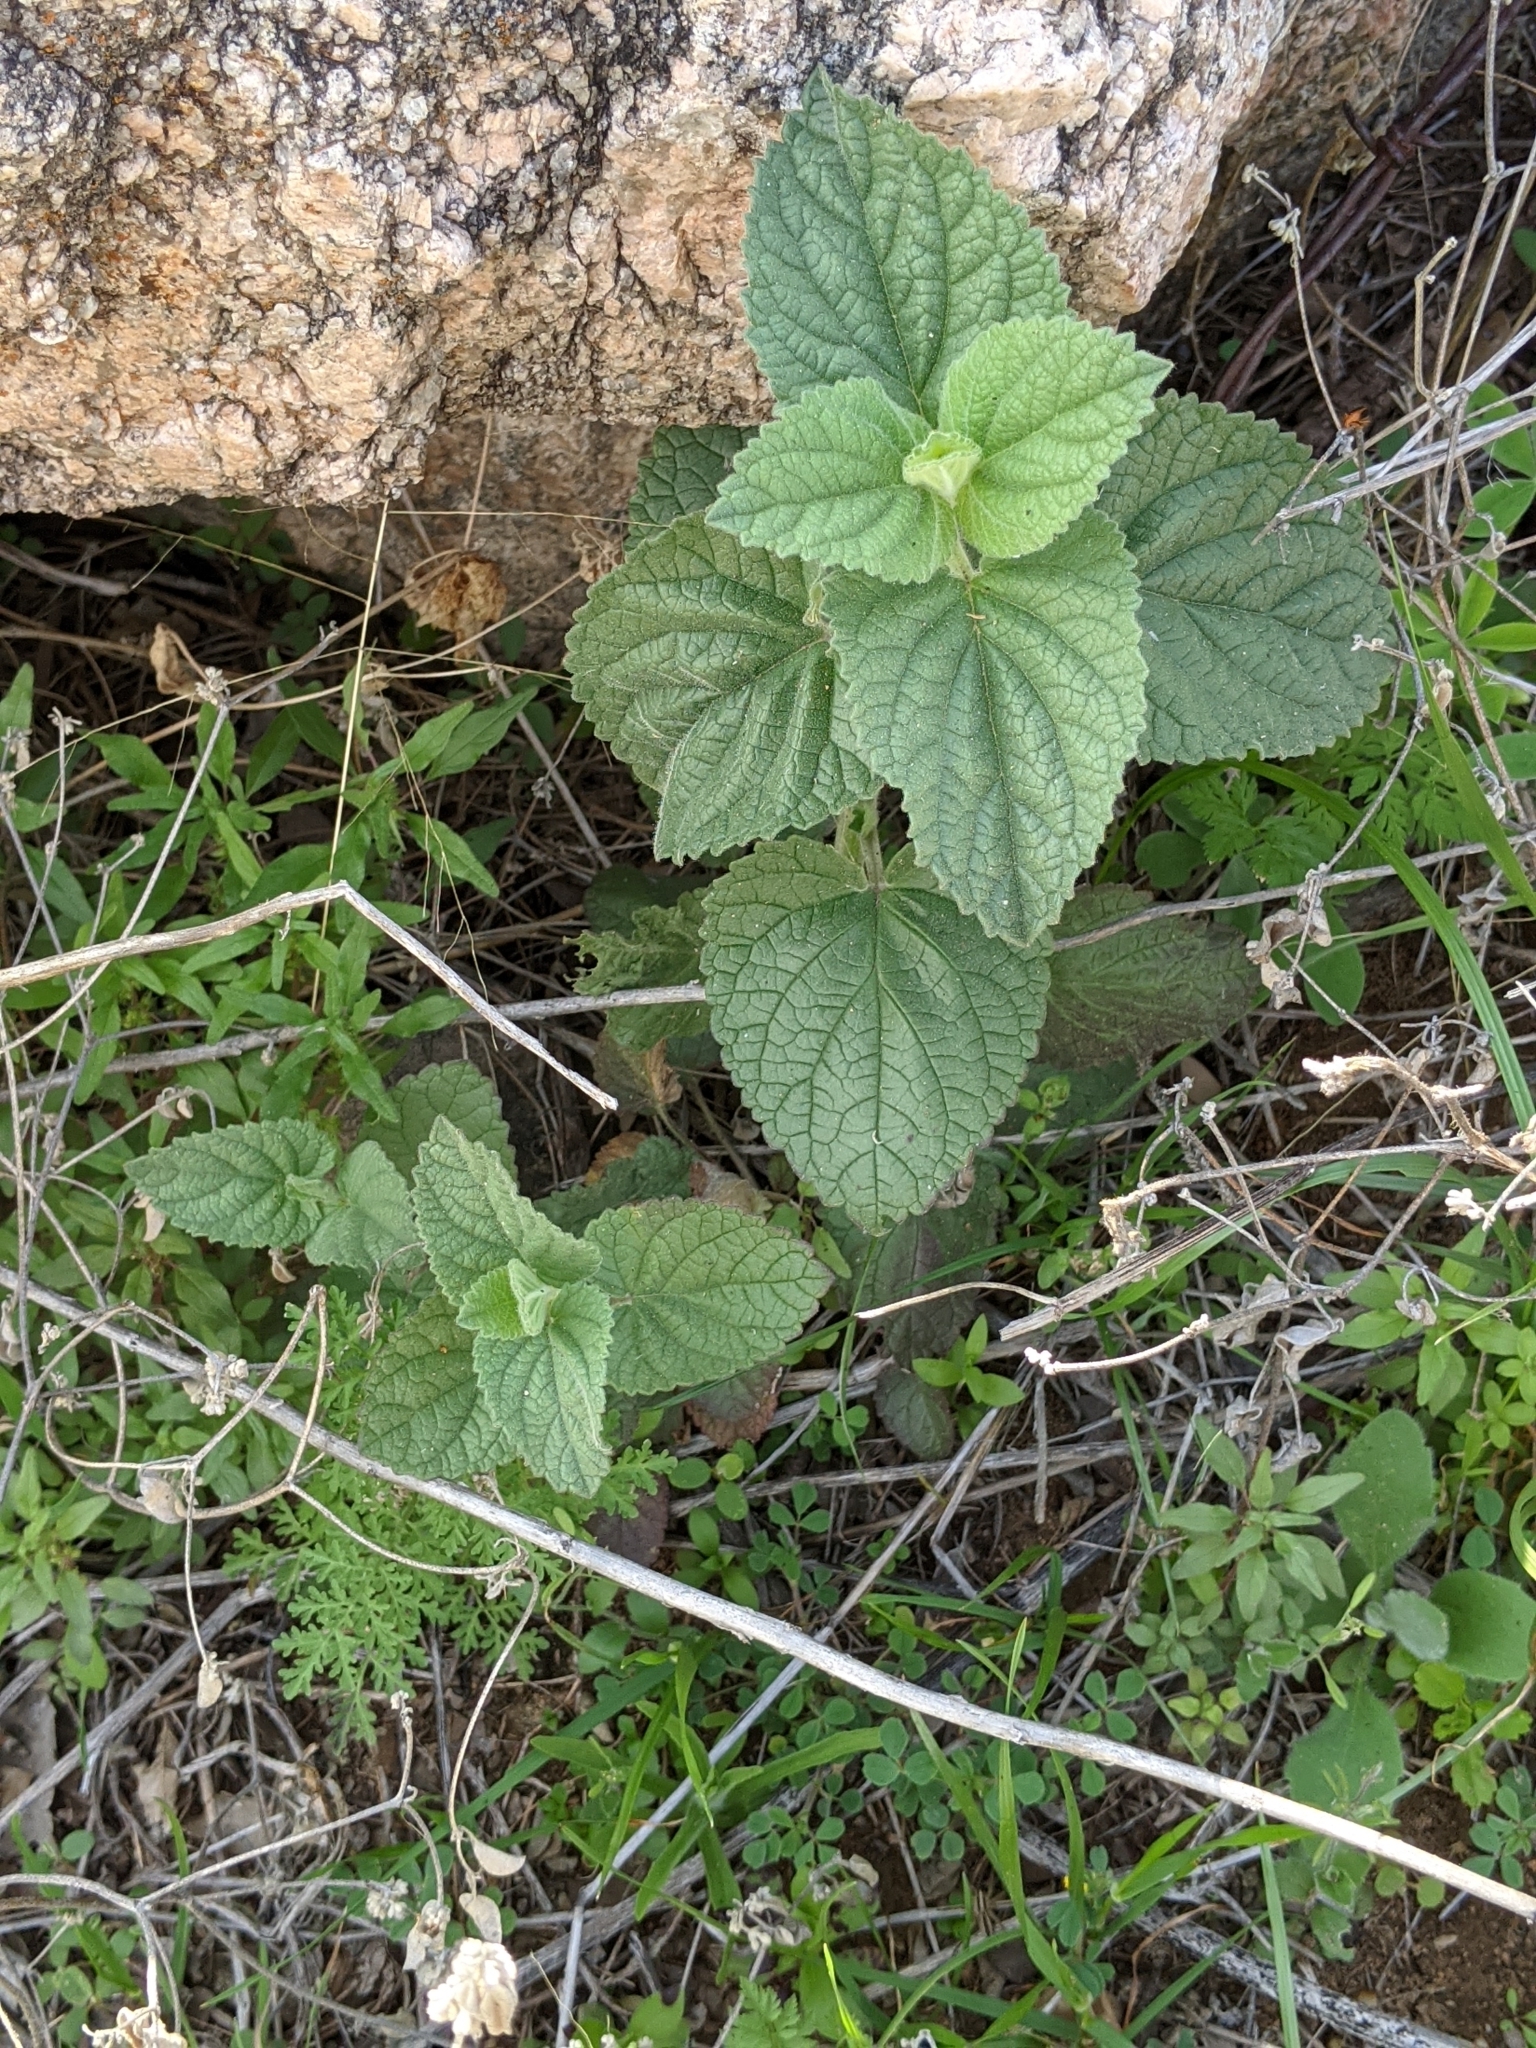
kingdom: Plantae
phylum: Tracheophyta
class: Magnoliopsida
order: Lamiales
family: Lamiaceae
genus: Scutellaria
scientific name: Scutellaria ovata
